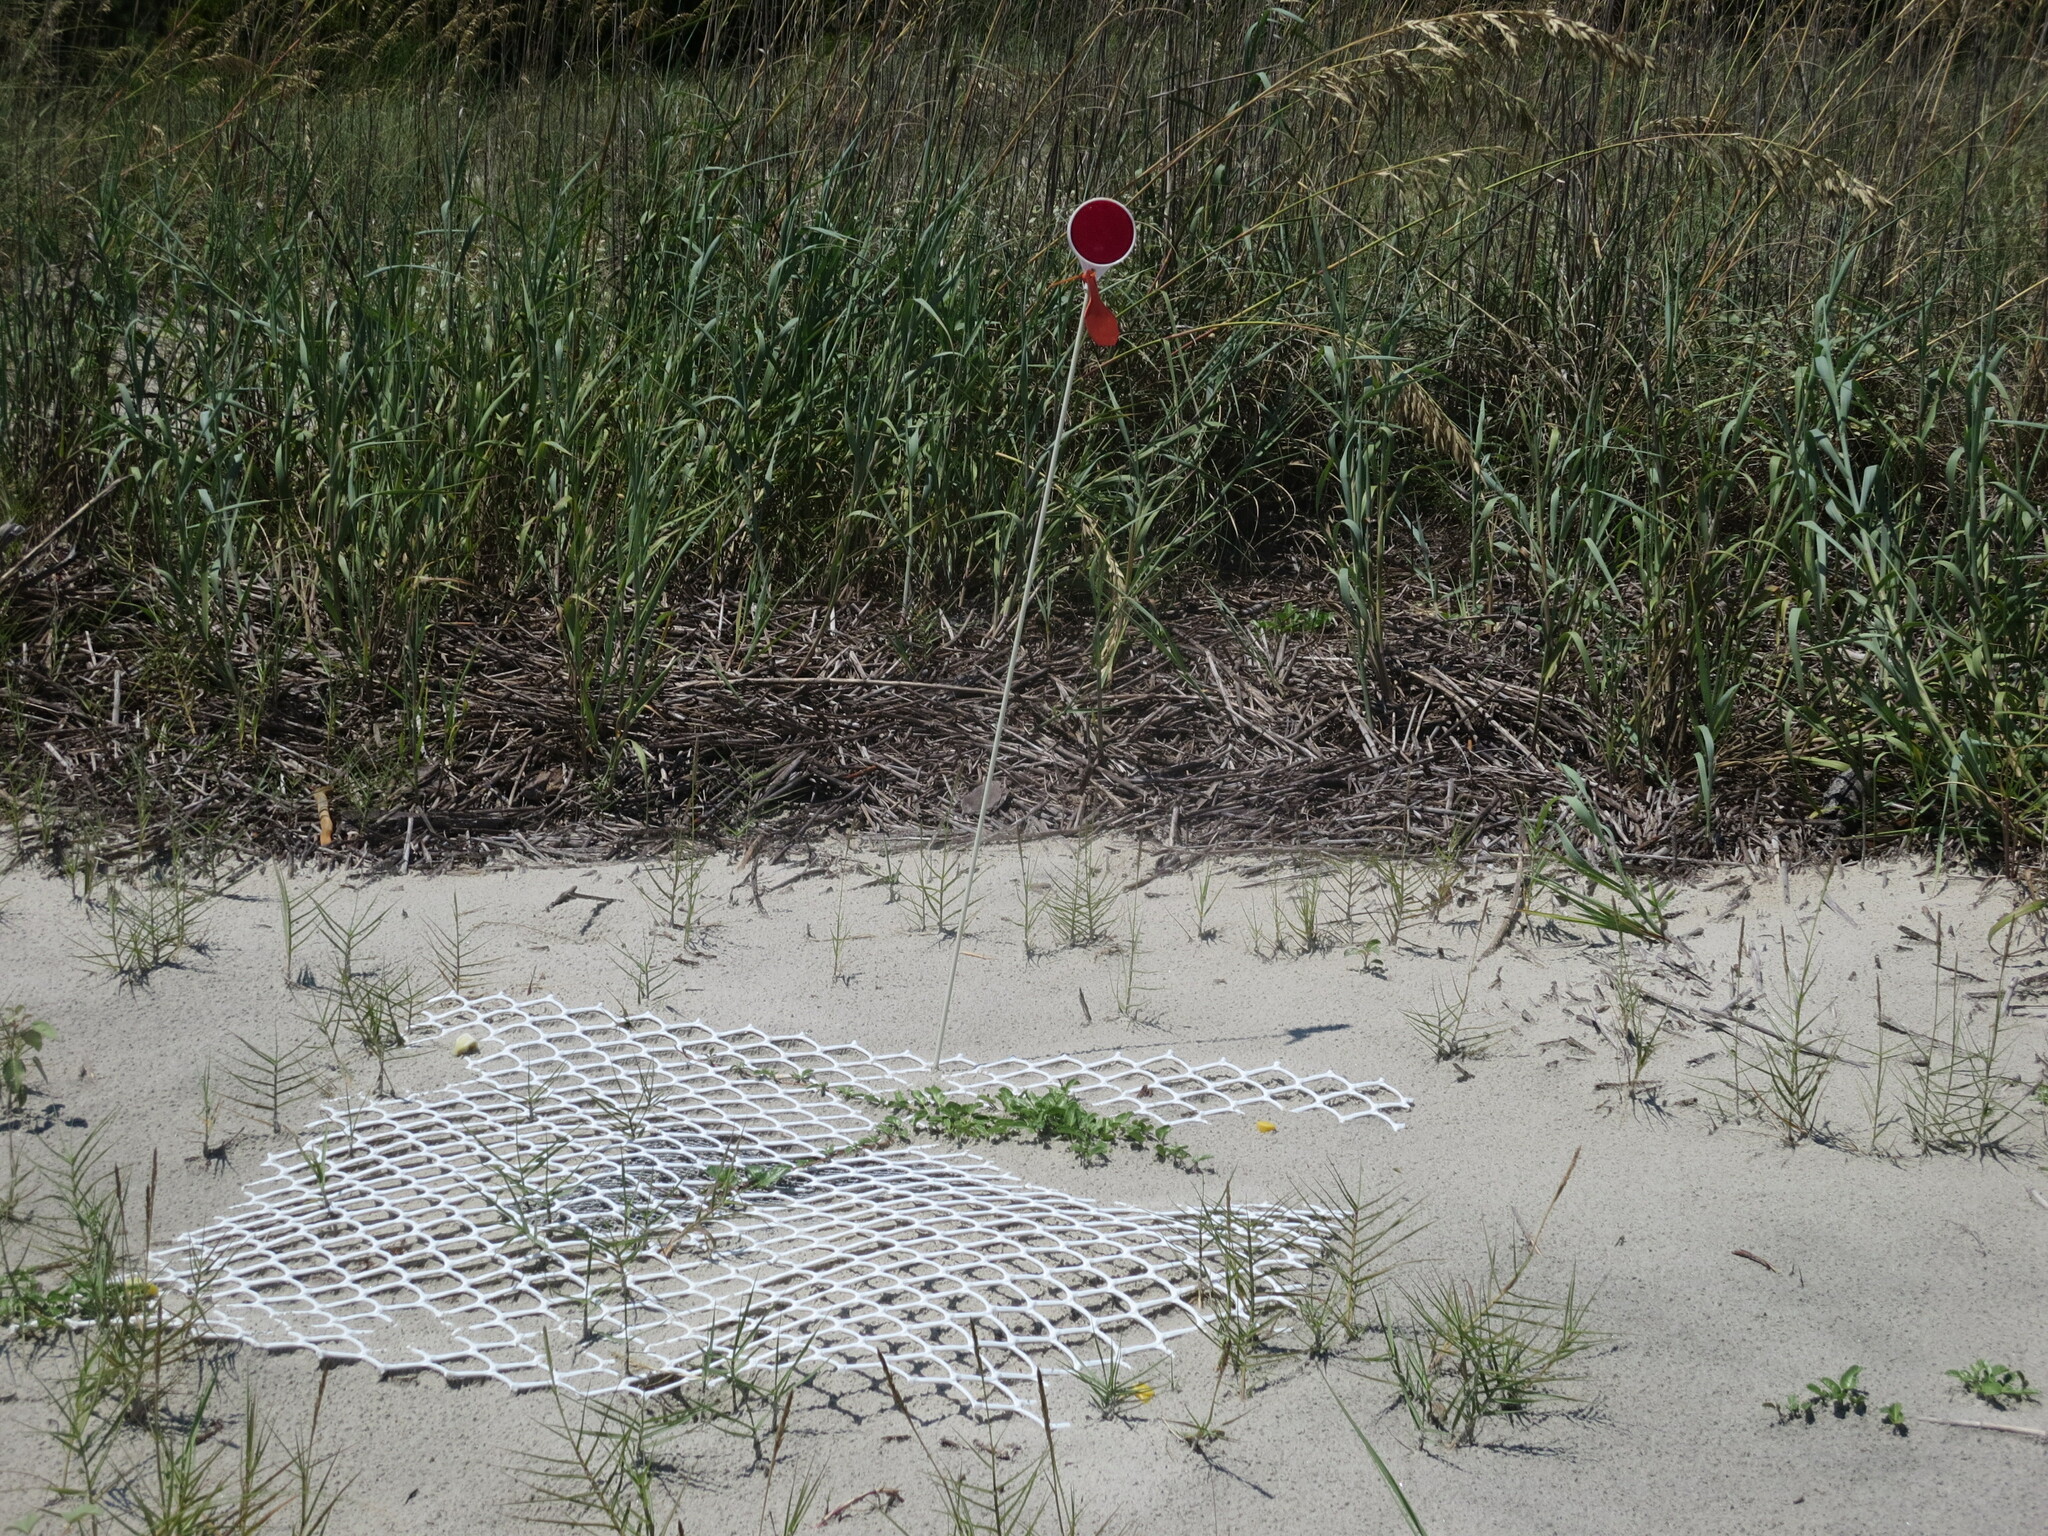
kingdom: Animalia
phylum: Chordata
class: Testudines
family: Cheloniidae
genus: Caretta
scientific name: Caretta caretta
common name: Loggerhead sea turtle
